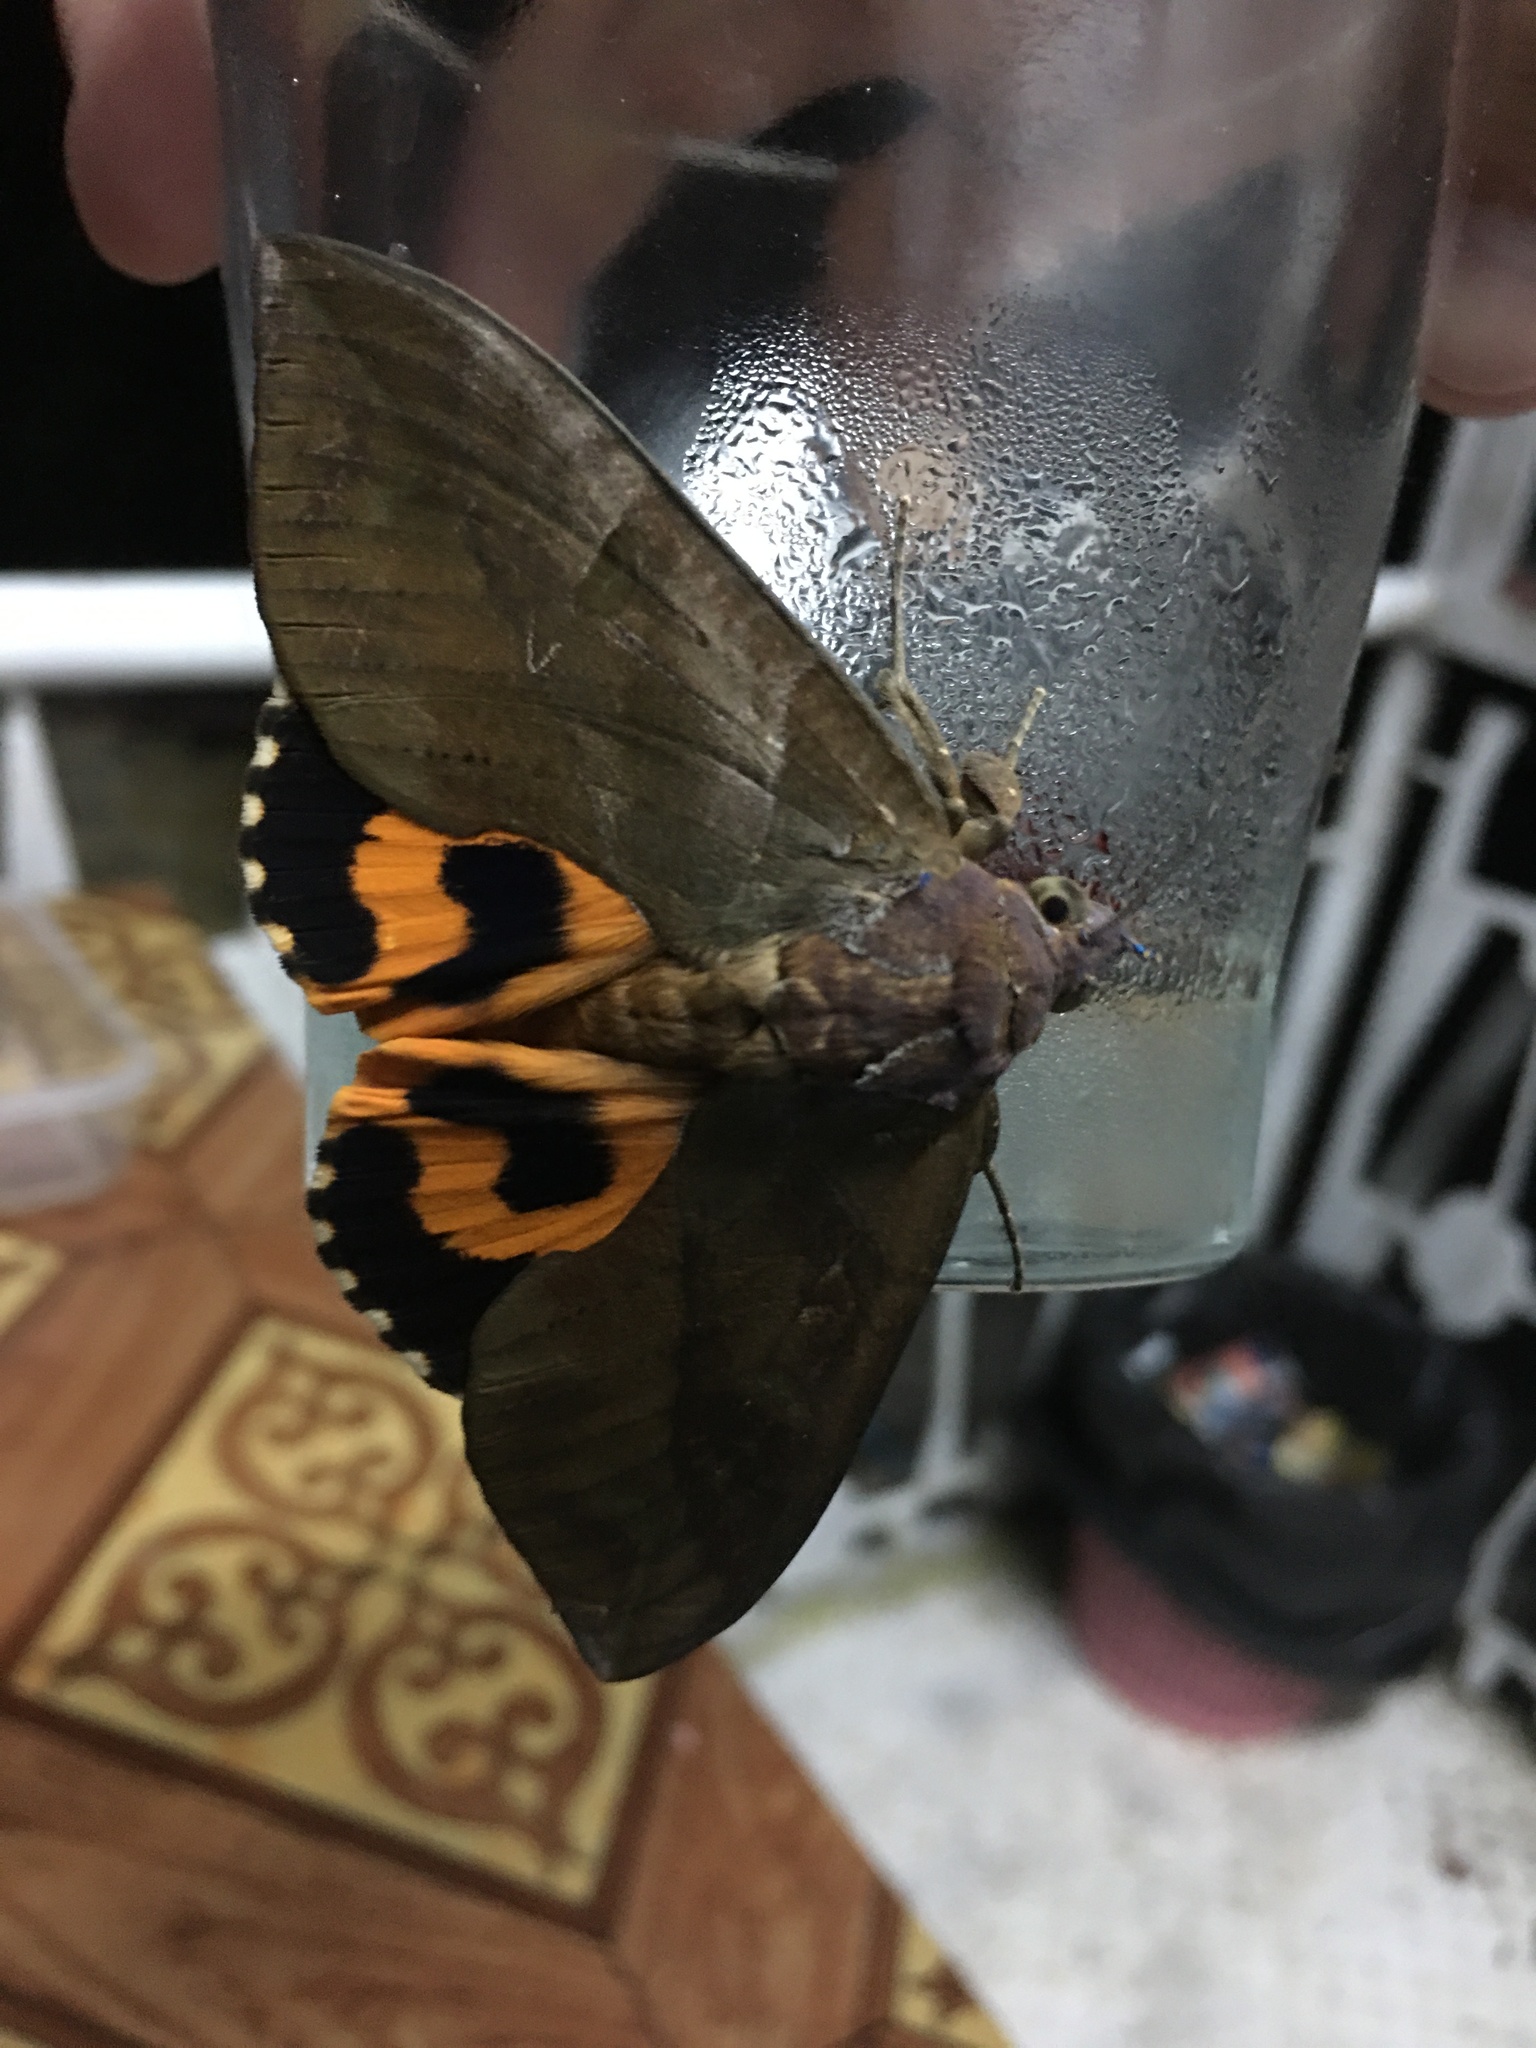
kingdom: Animalia
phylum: Arthropoda
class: Insecta
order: Lepidoptera
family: Erebidae
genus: Eudocima
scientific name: Eudocima phalonia
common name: Wasp
